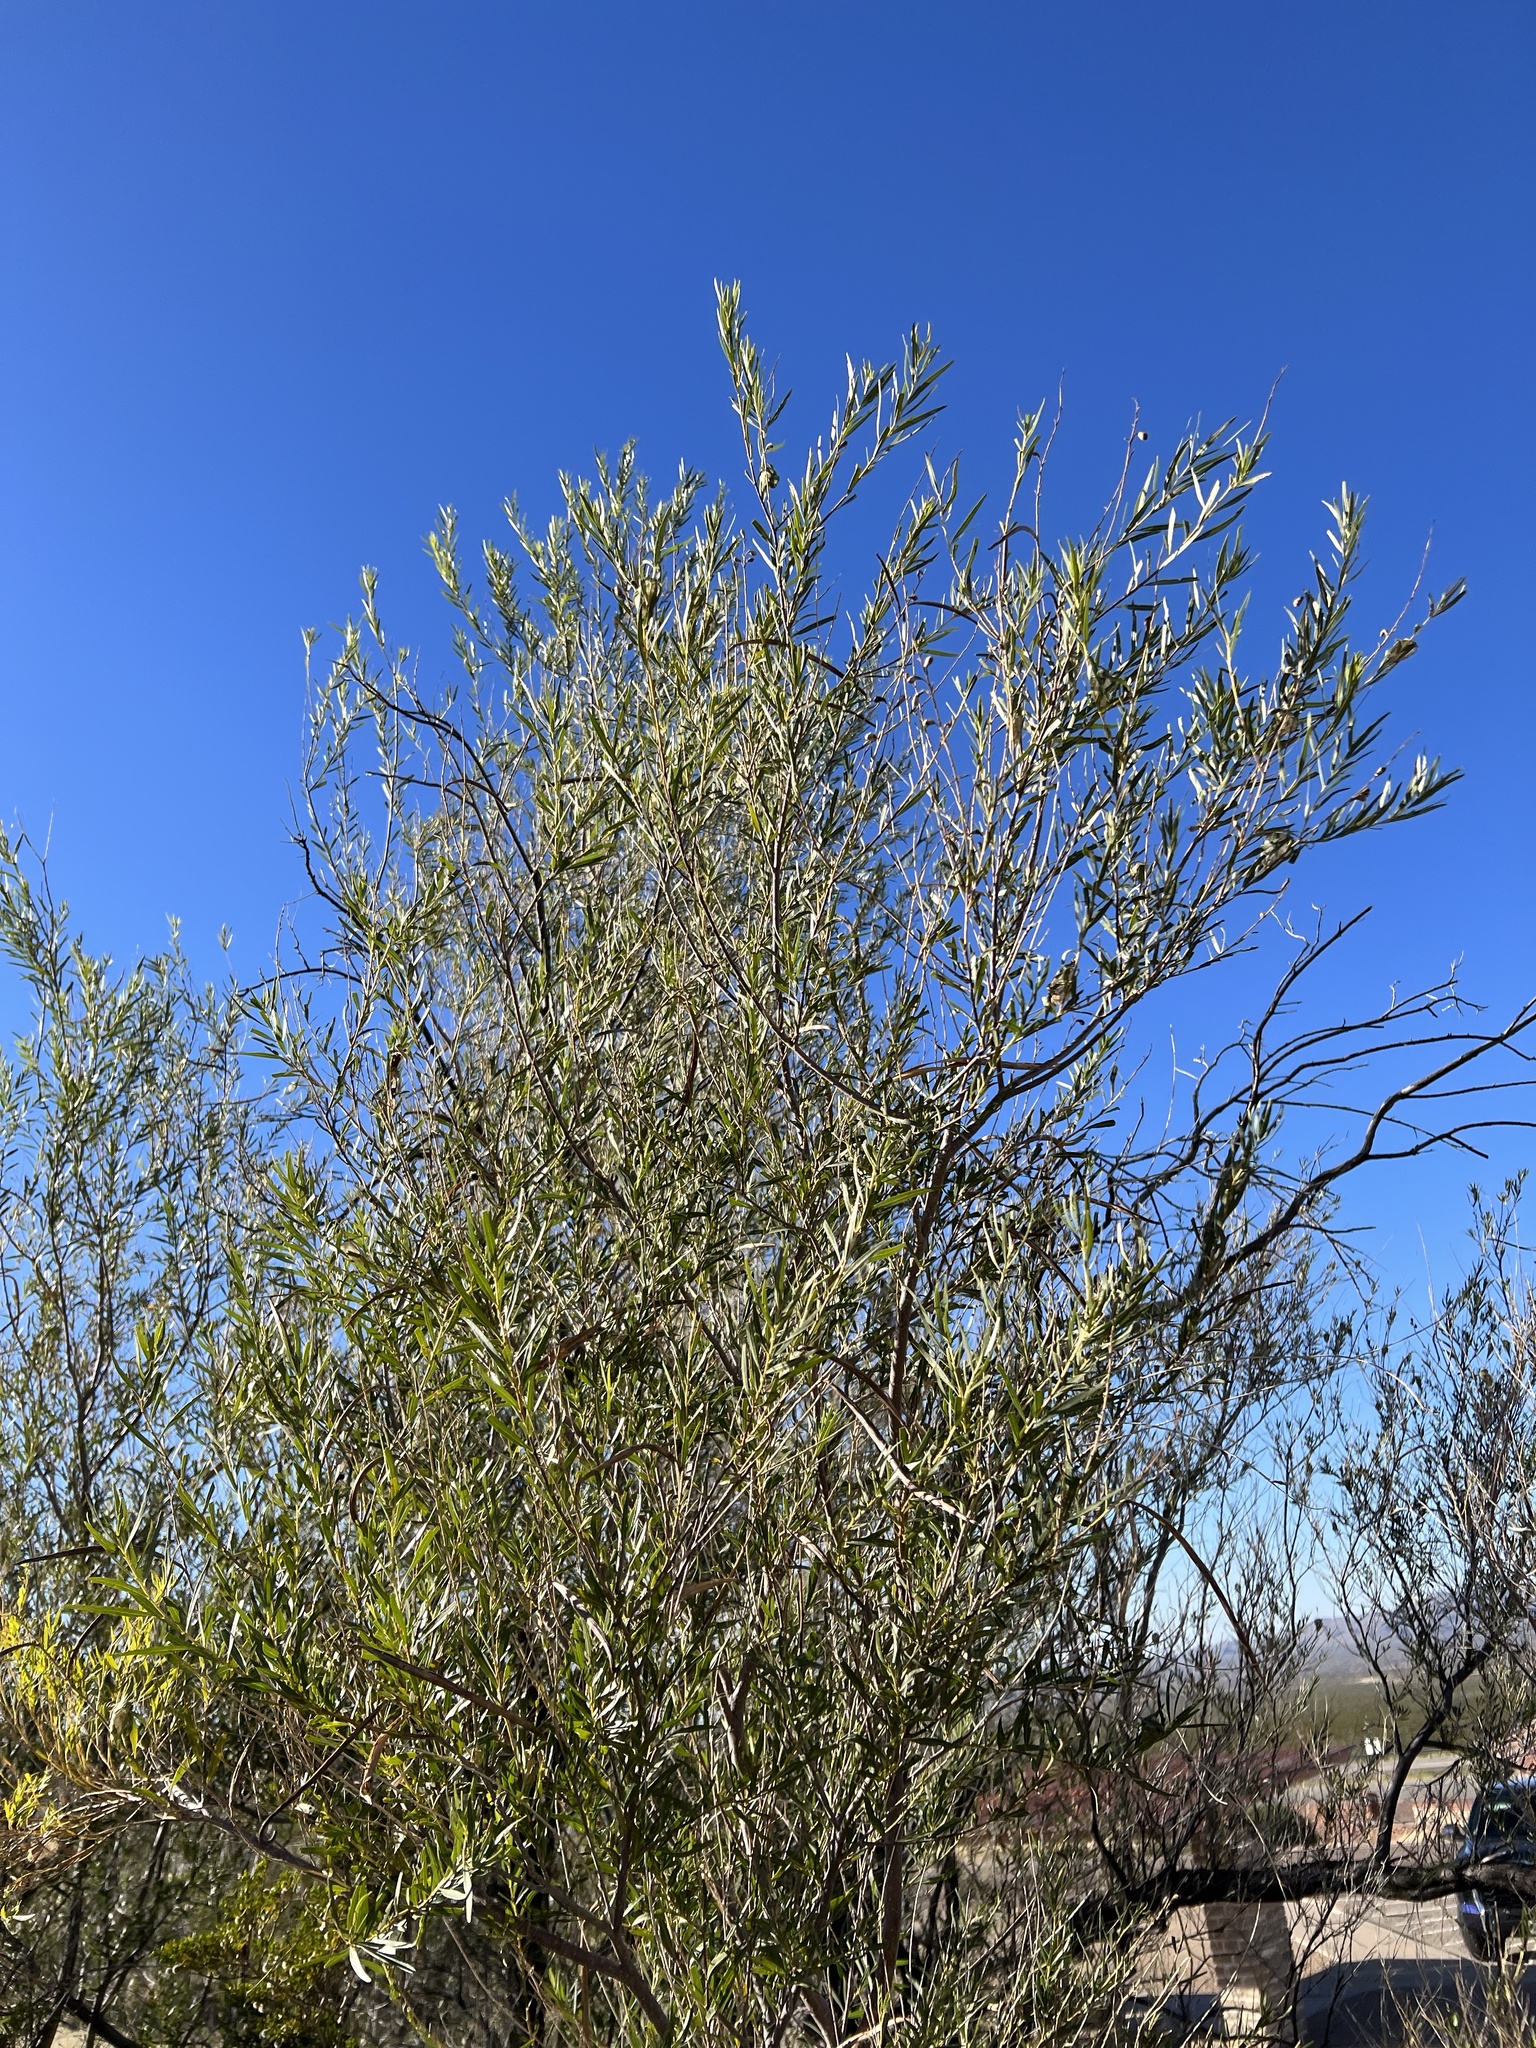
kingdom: Plantae
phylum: Tracheophyta
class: Magnoliopsida
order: Lamiales
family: Bignoniaceae
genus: Chilopsis
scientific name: Chilopsis linearis
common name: Desert-willow
